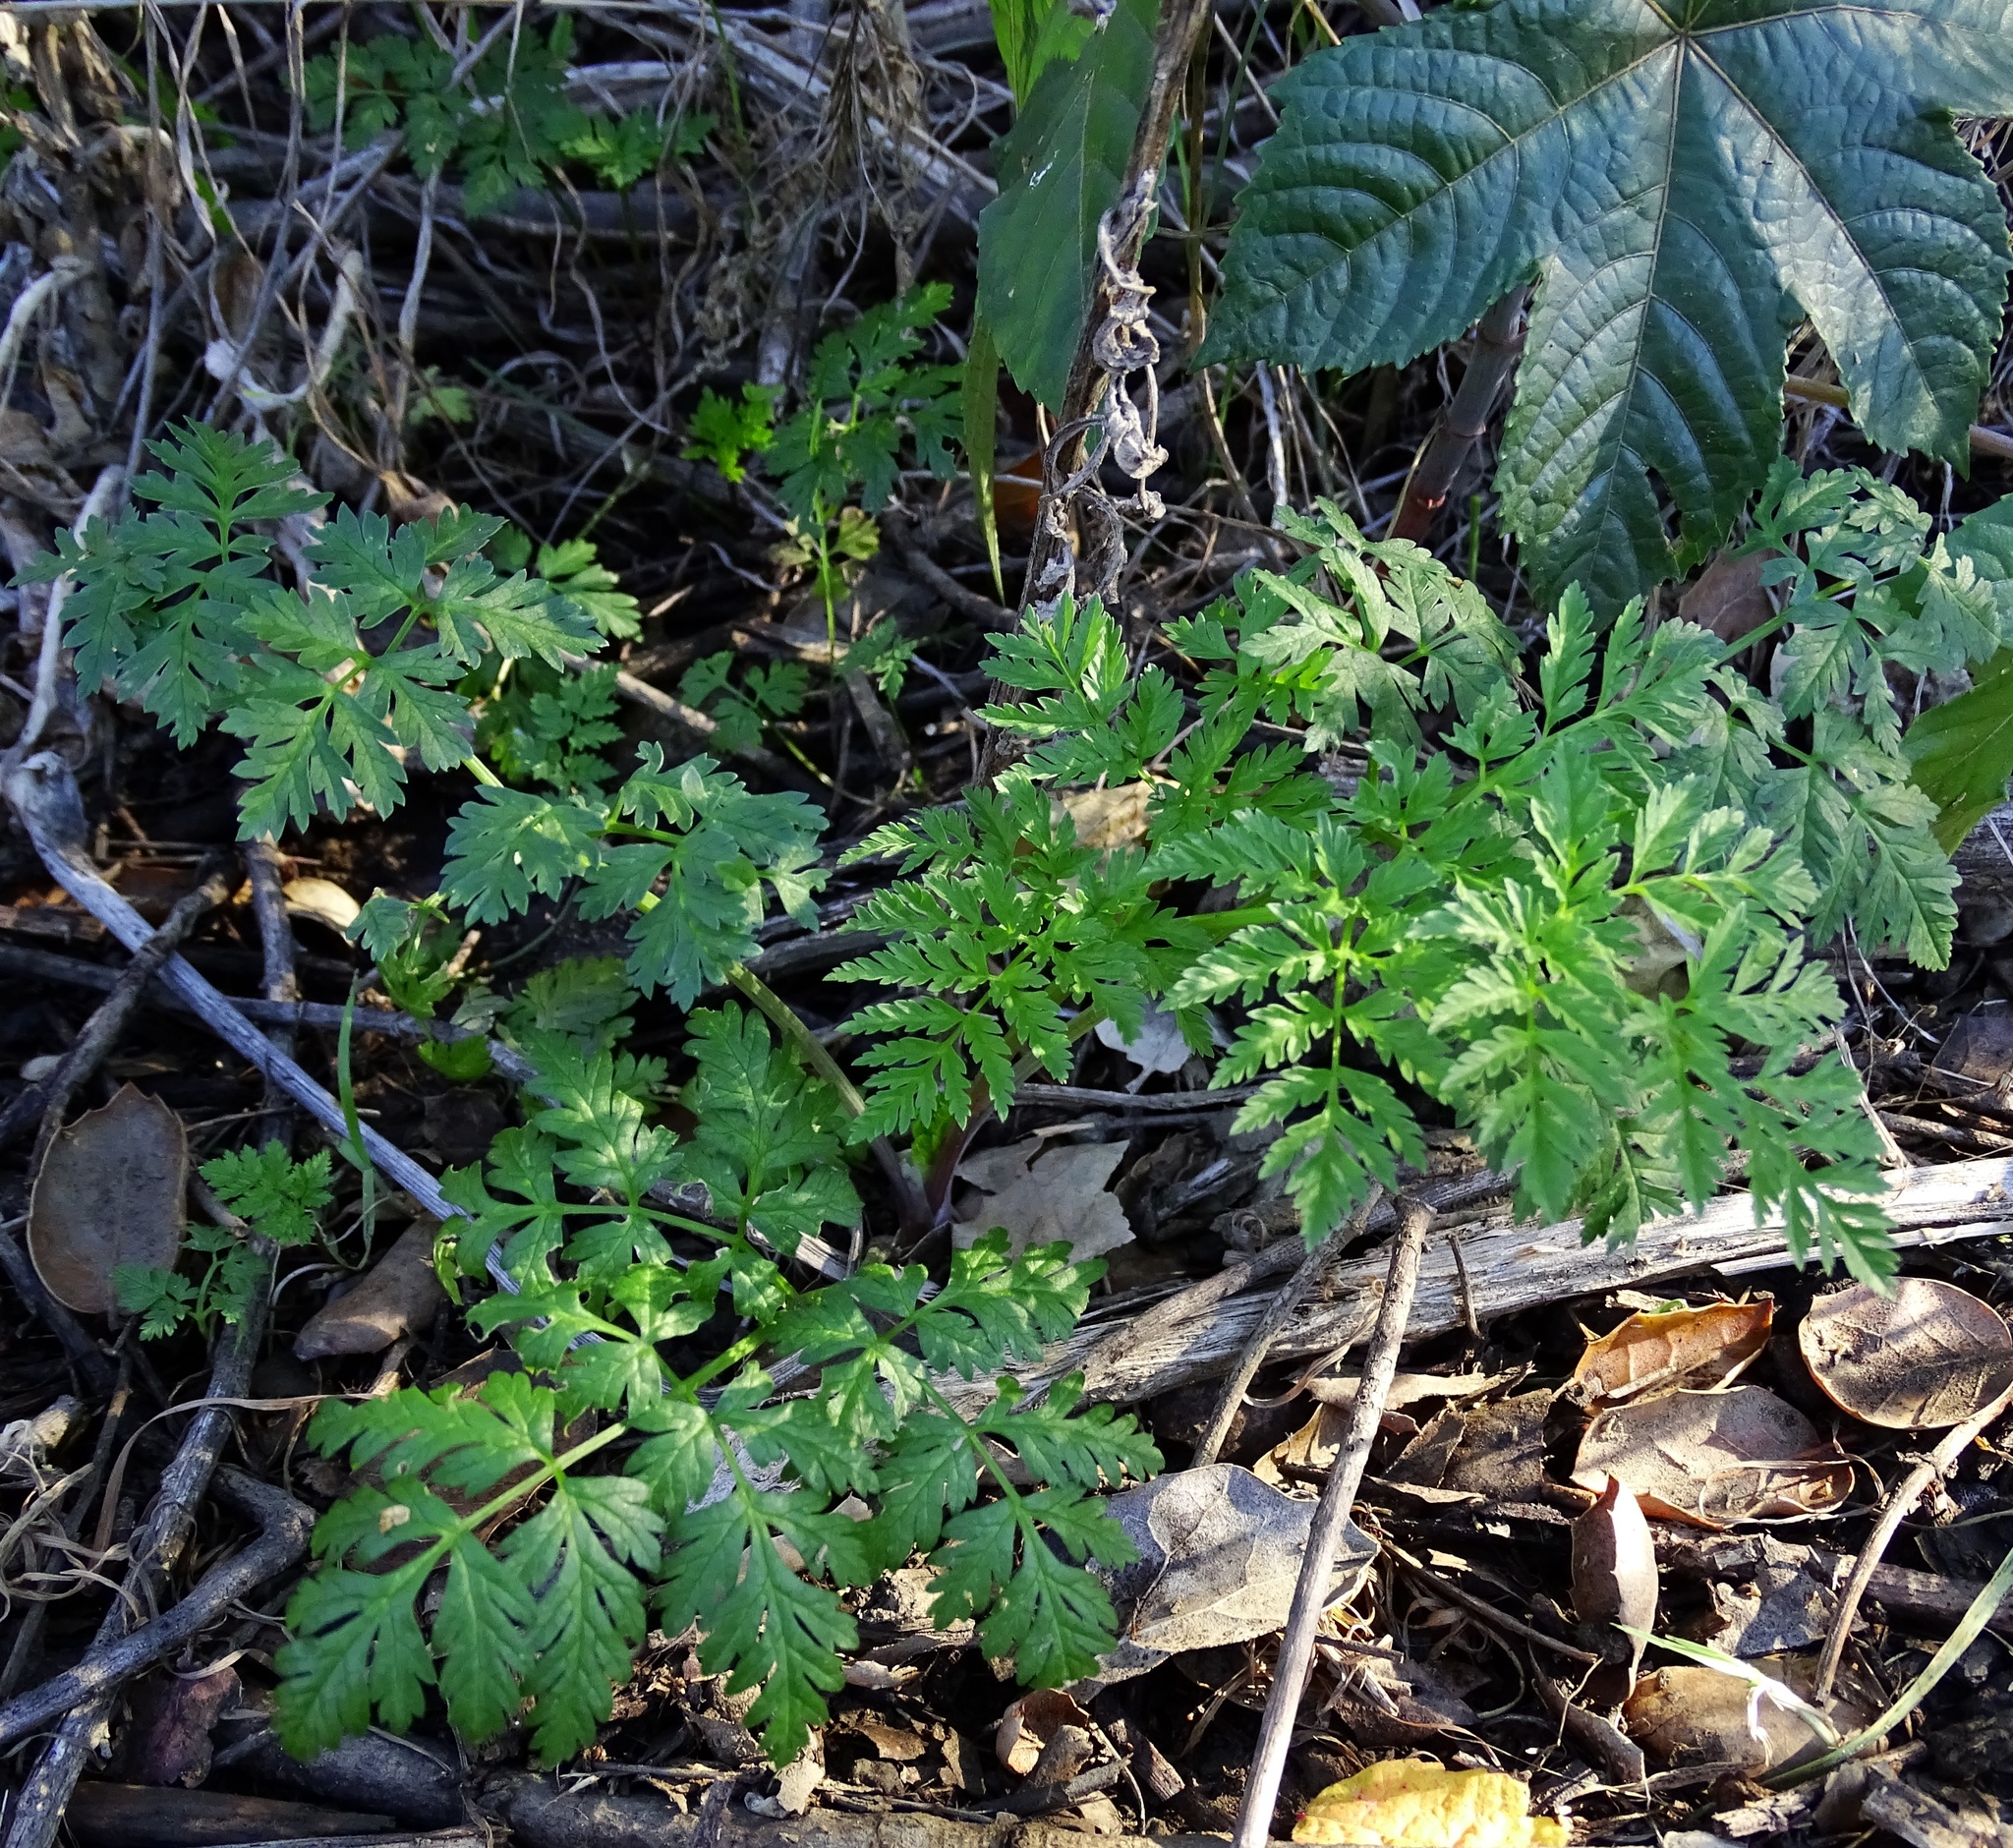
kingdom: Plantae
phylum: Tracheophyta
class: Magnoliopsida
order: Apiales
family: Apiaceae
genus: Conium
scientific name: Conium maculatum
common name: Hemlock
